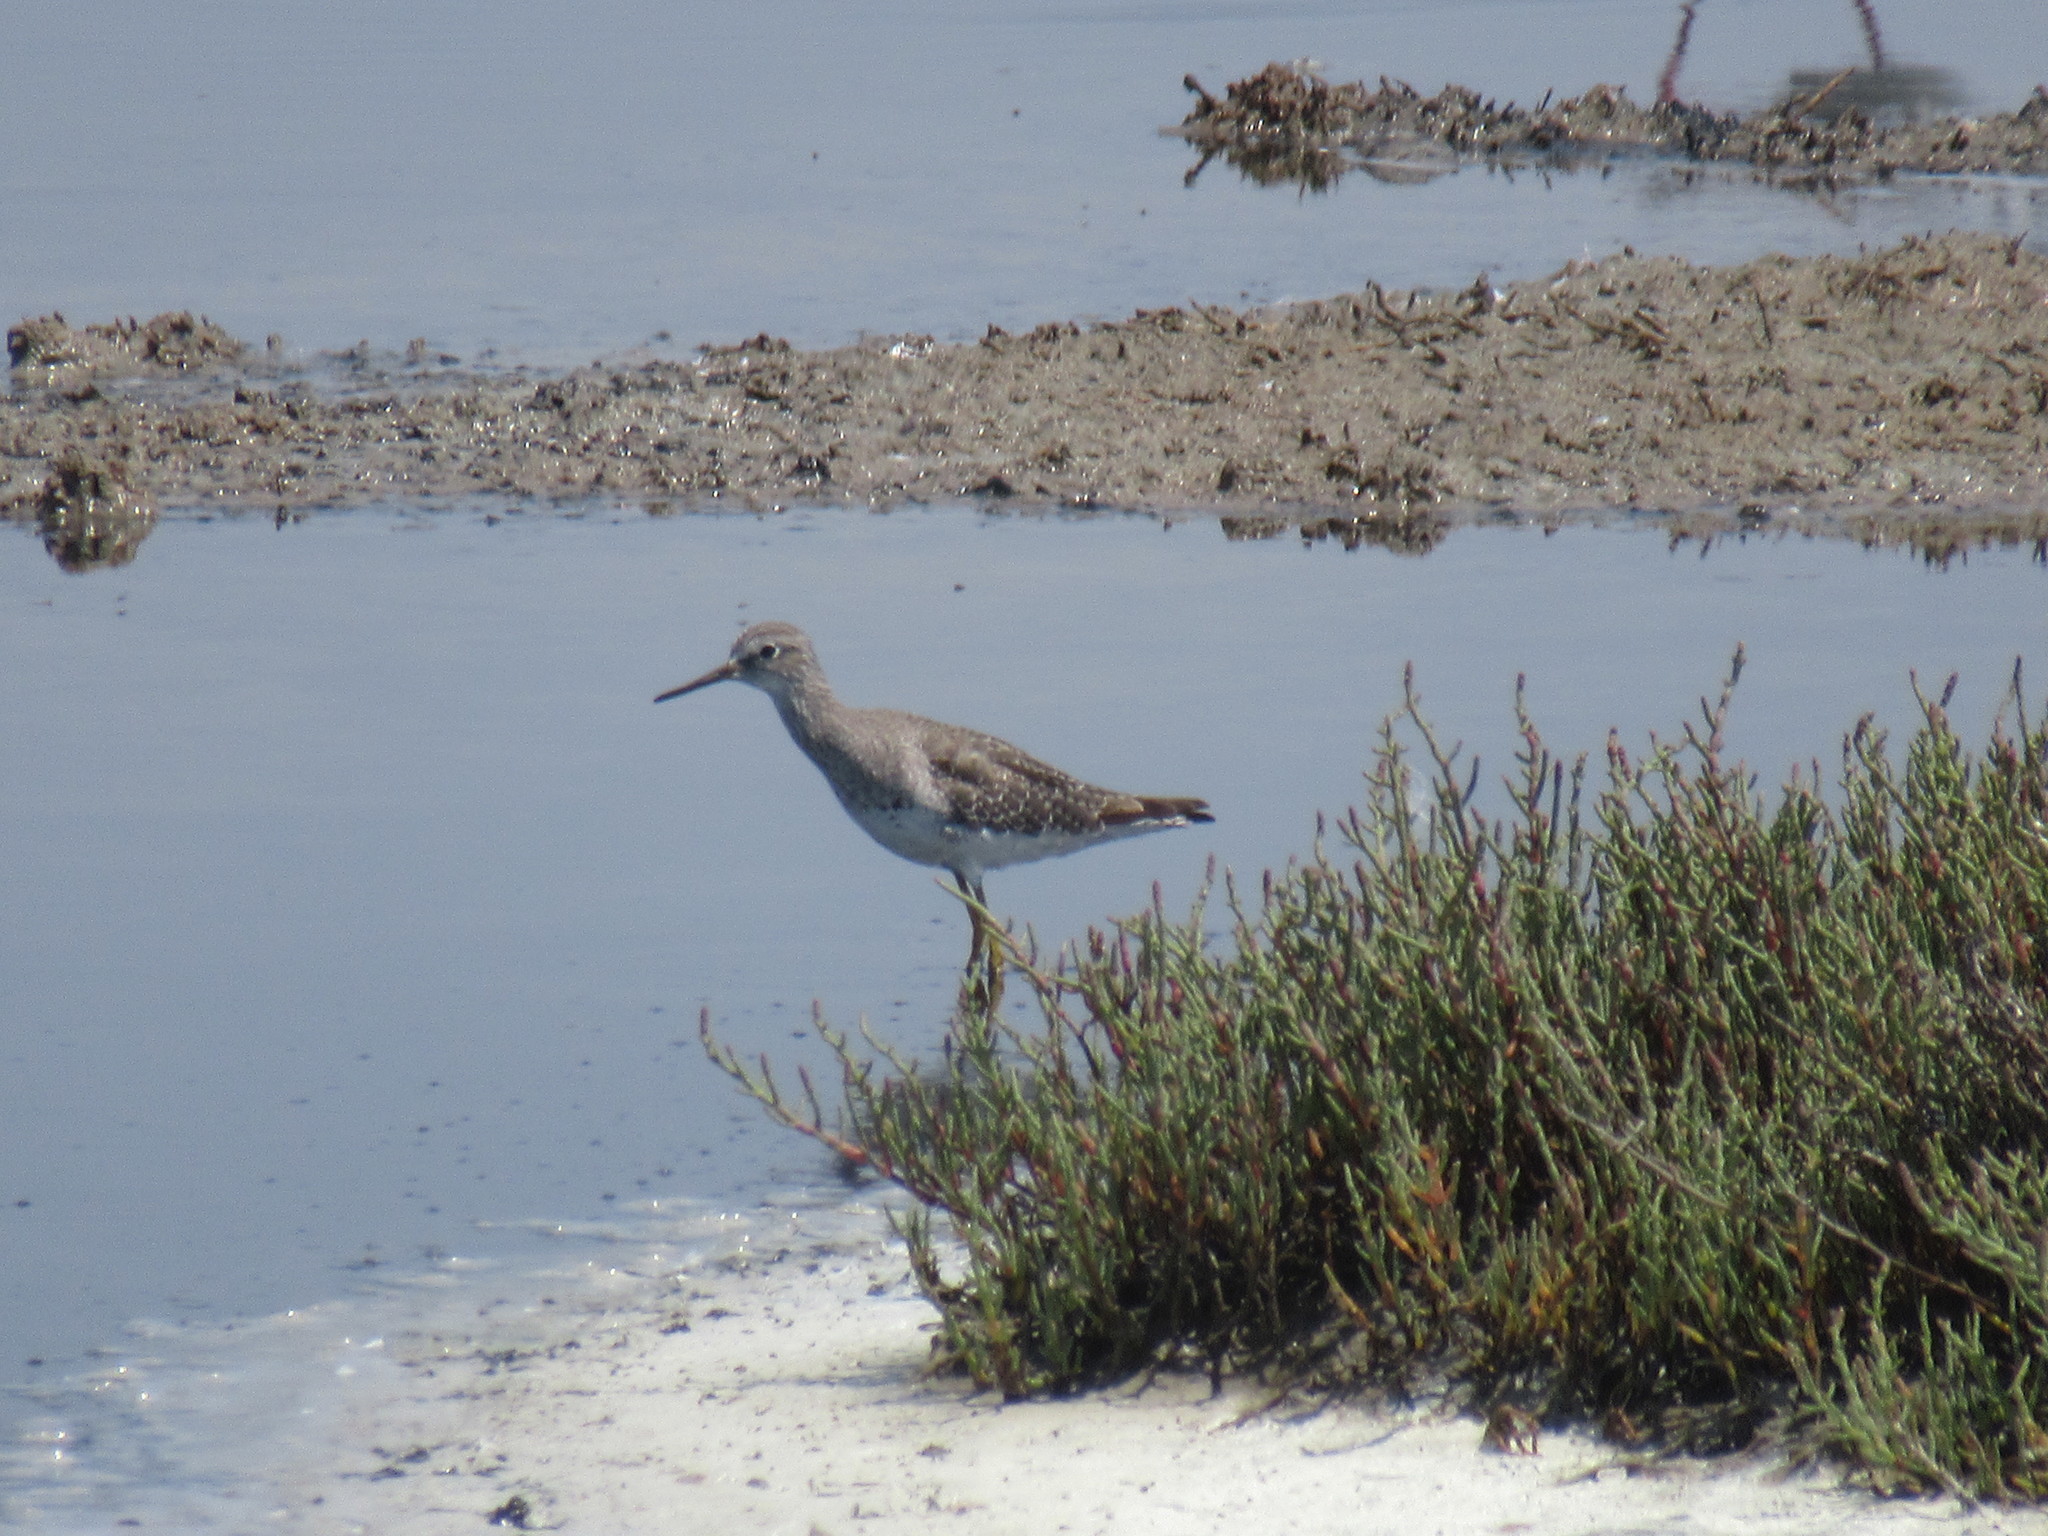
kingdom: Animalia
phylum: Chordata
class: Aves
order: Charadriiformes
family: Scolopacidae
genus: Tringa
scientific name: Tringa flavipes
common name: Lesser yellowlegs
